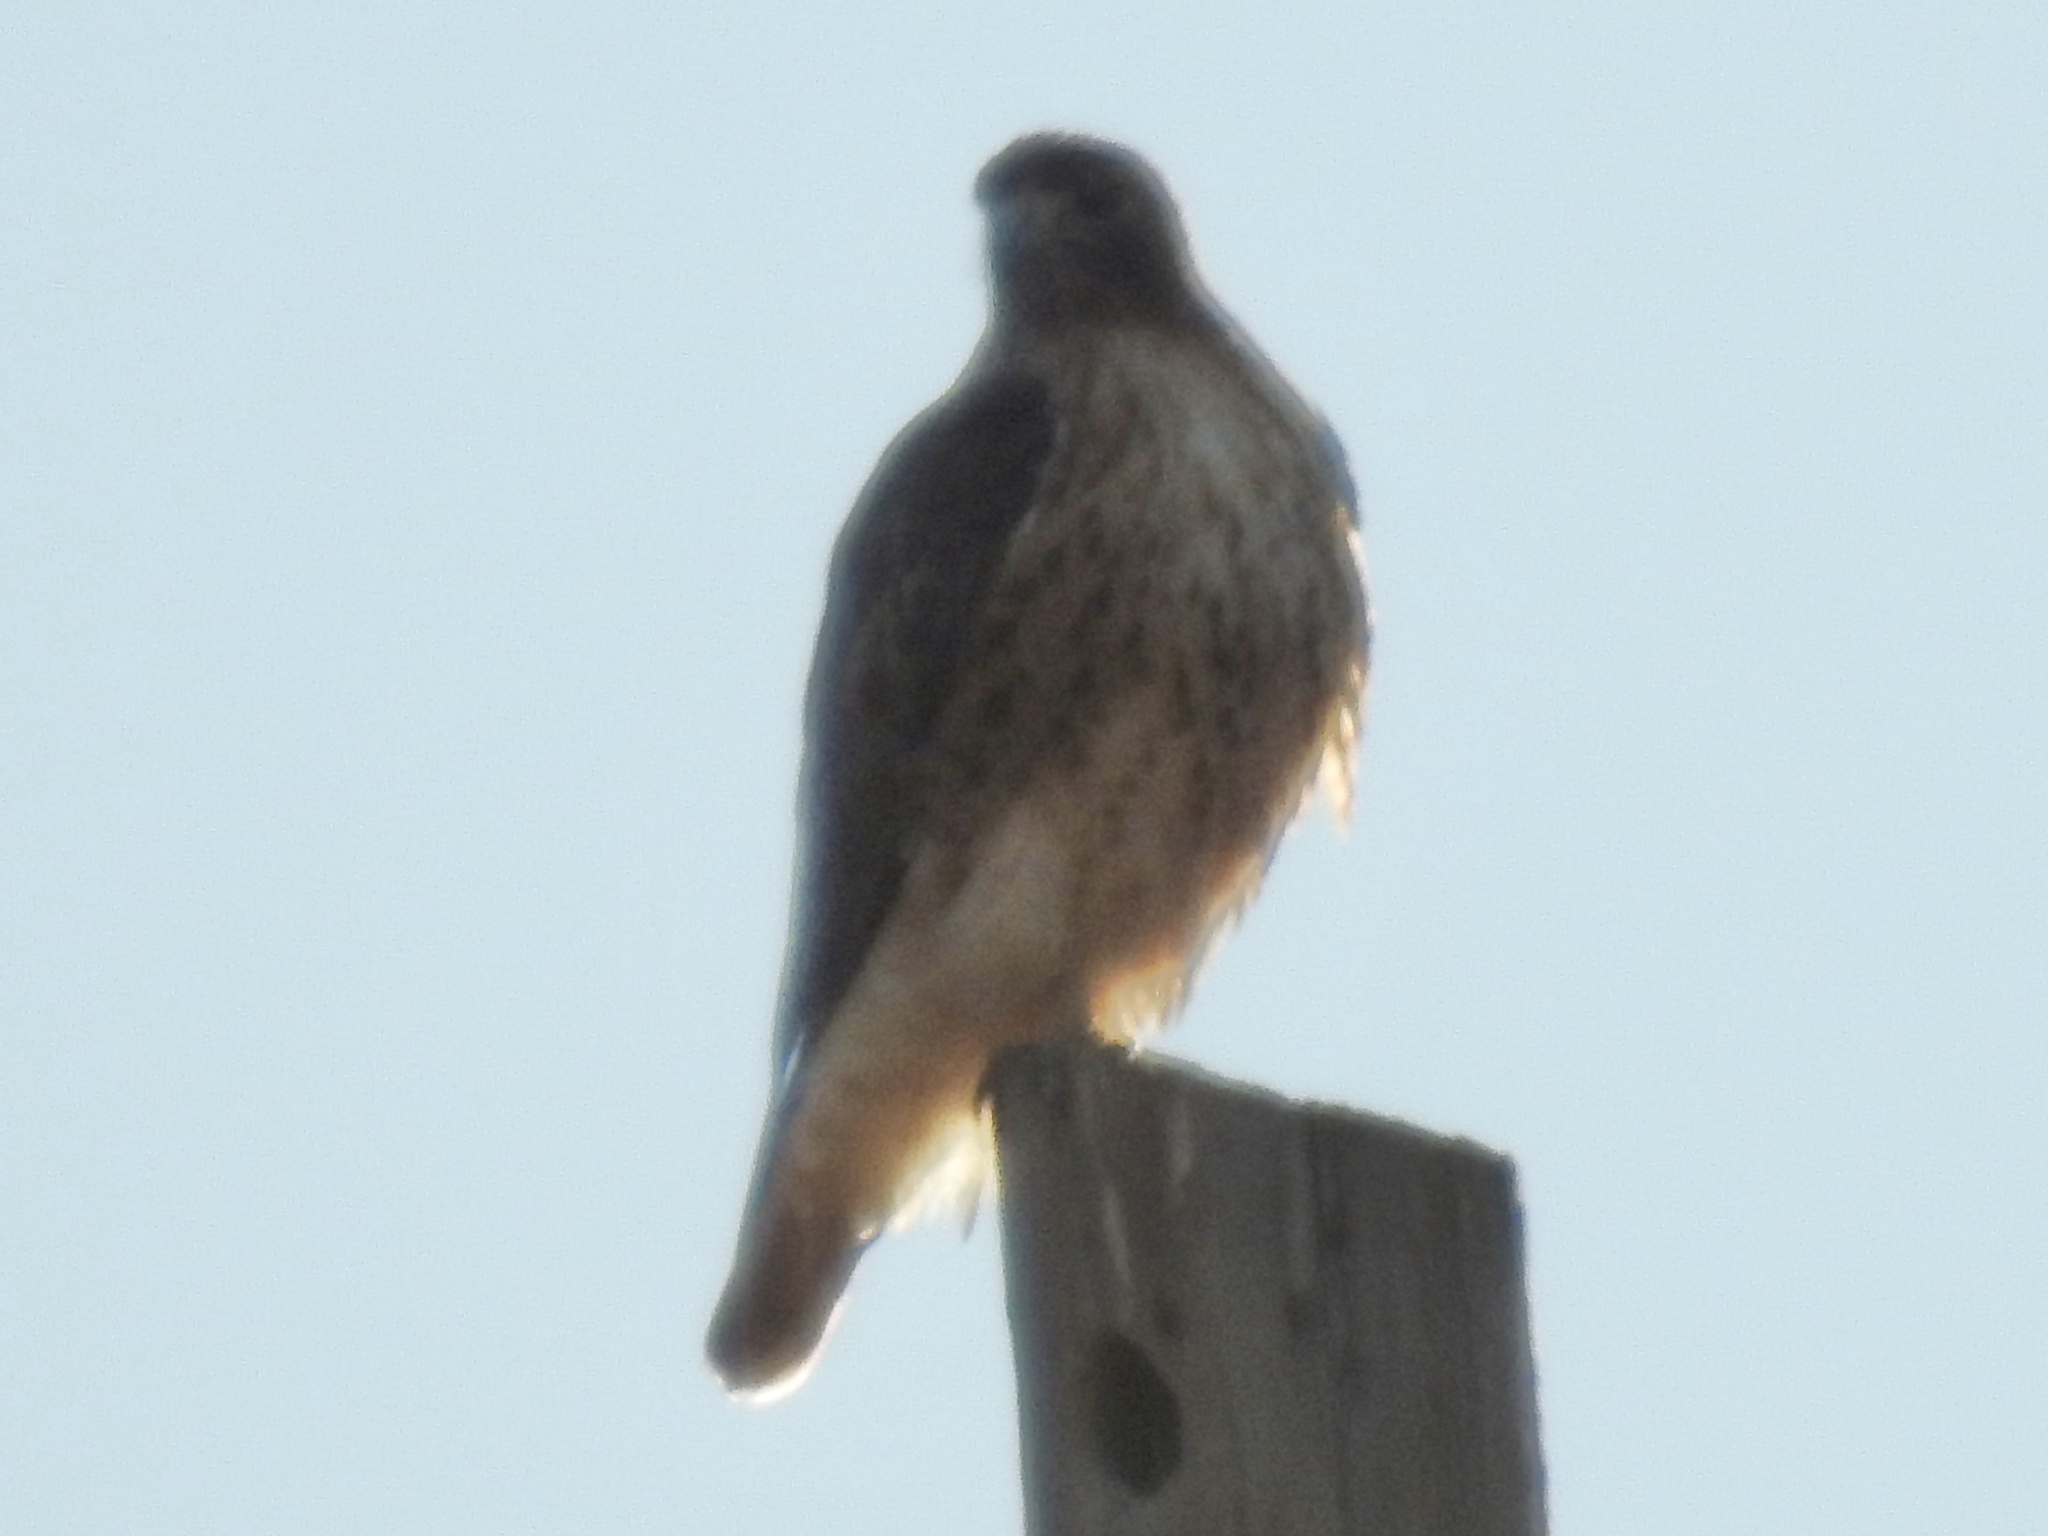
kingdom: Animalia
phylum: Chordata
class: Aves
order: Accipitriformes
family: Accipitridae
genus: Buteo
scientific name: Buteo jamaicensis
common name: Red-tailed hawk
